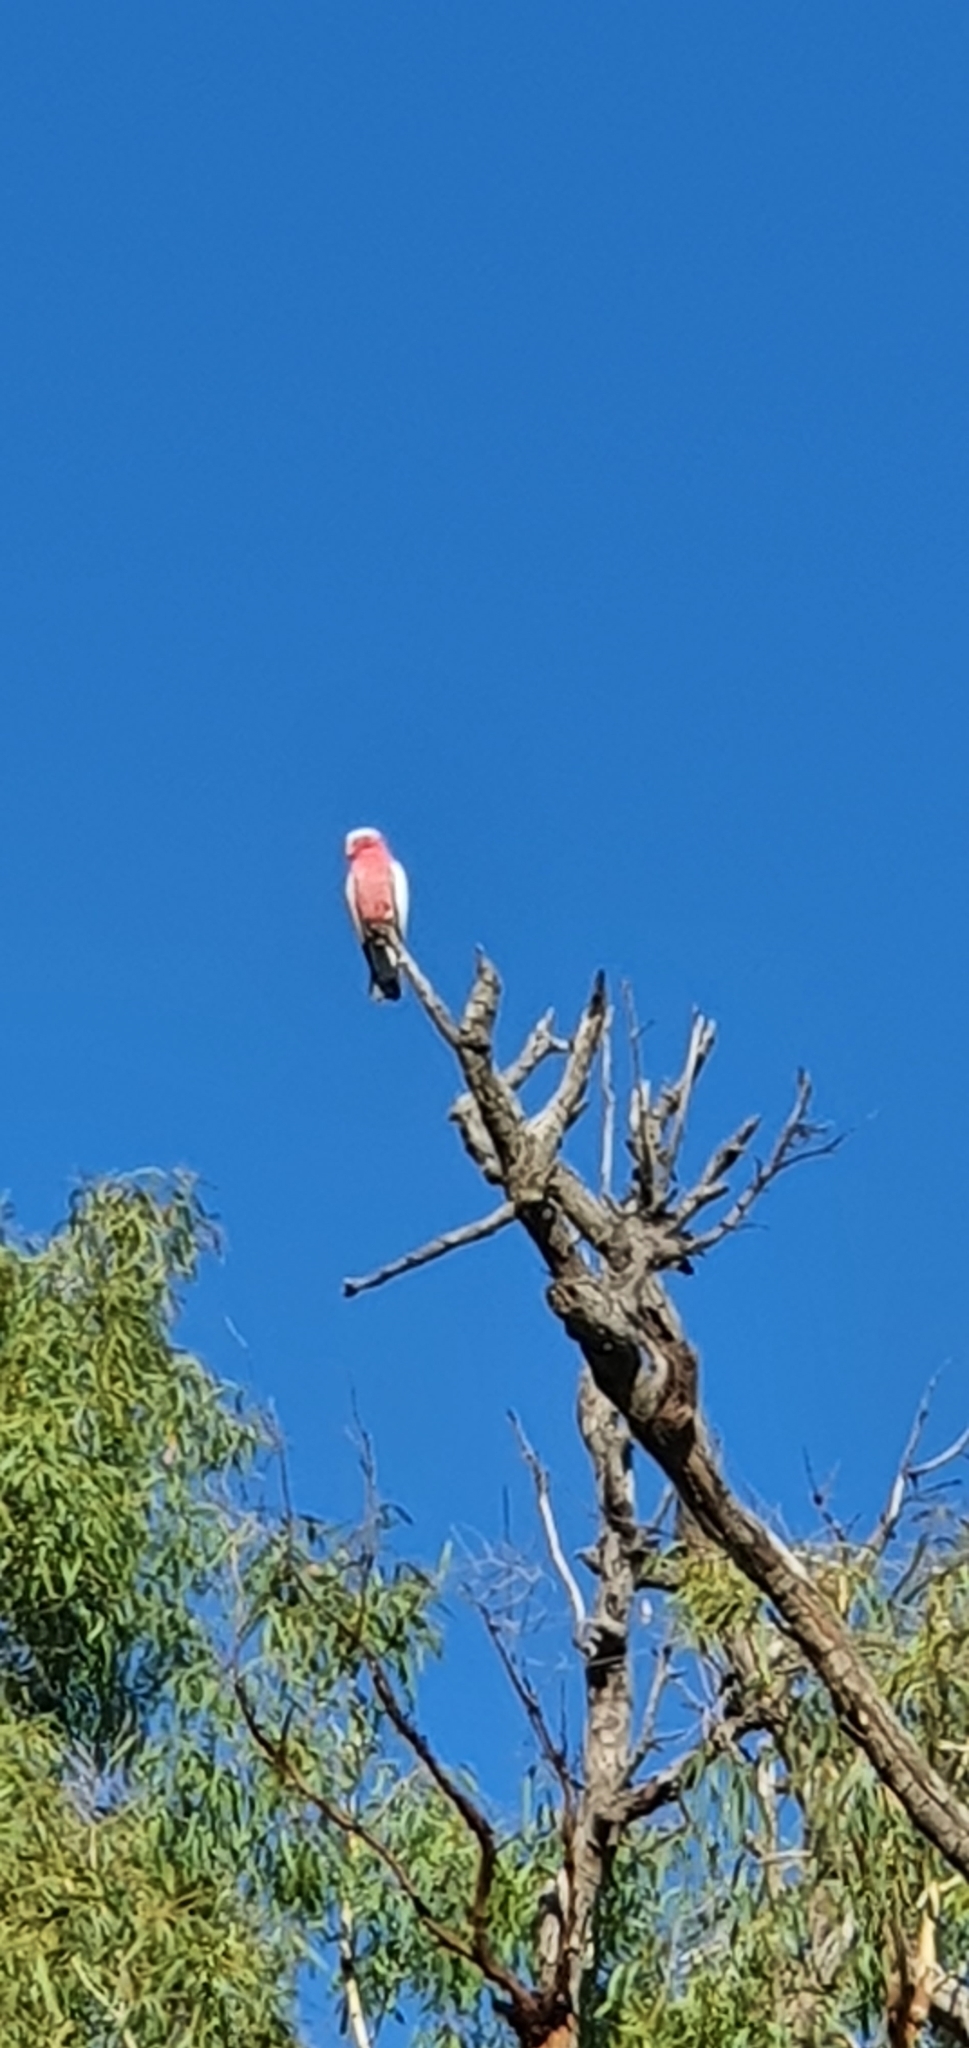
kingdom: Animalia
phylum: Chordata
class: Aves
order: Psittaciformes
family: Psittacidae
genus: Eolophus
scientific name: Eolophus roseicapilla
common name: Galah
